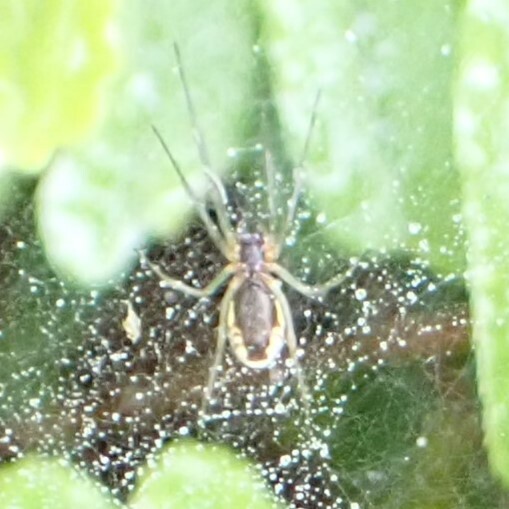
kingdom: Animalia
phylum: Arthropoda
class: Arachnida
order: Araneae
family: Linyphiidae
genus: Frontinella
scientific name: Frontinella pyramitela
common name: Bowl-and-doily spider
